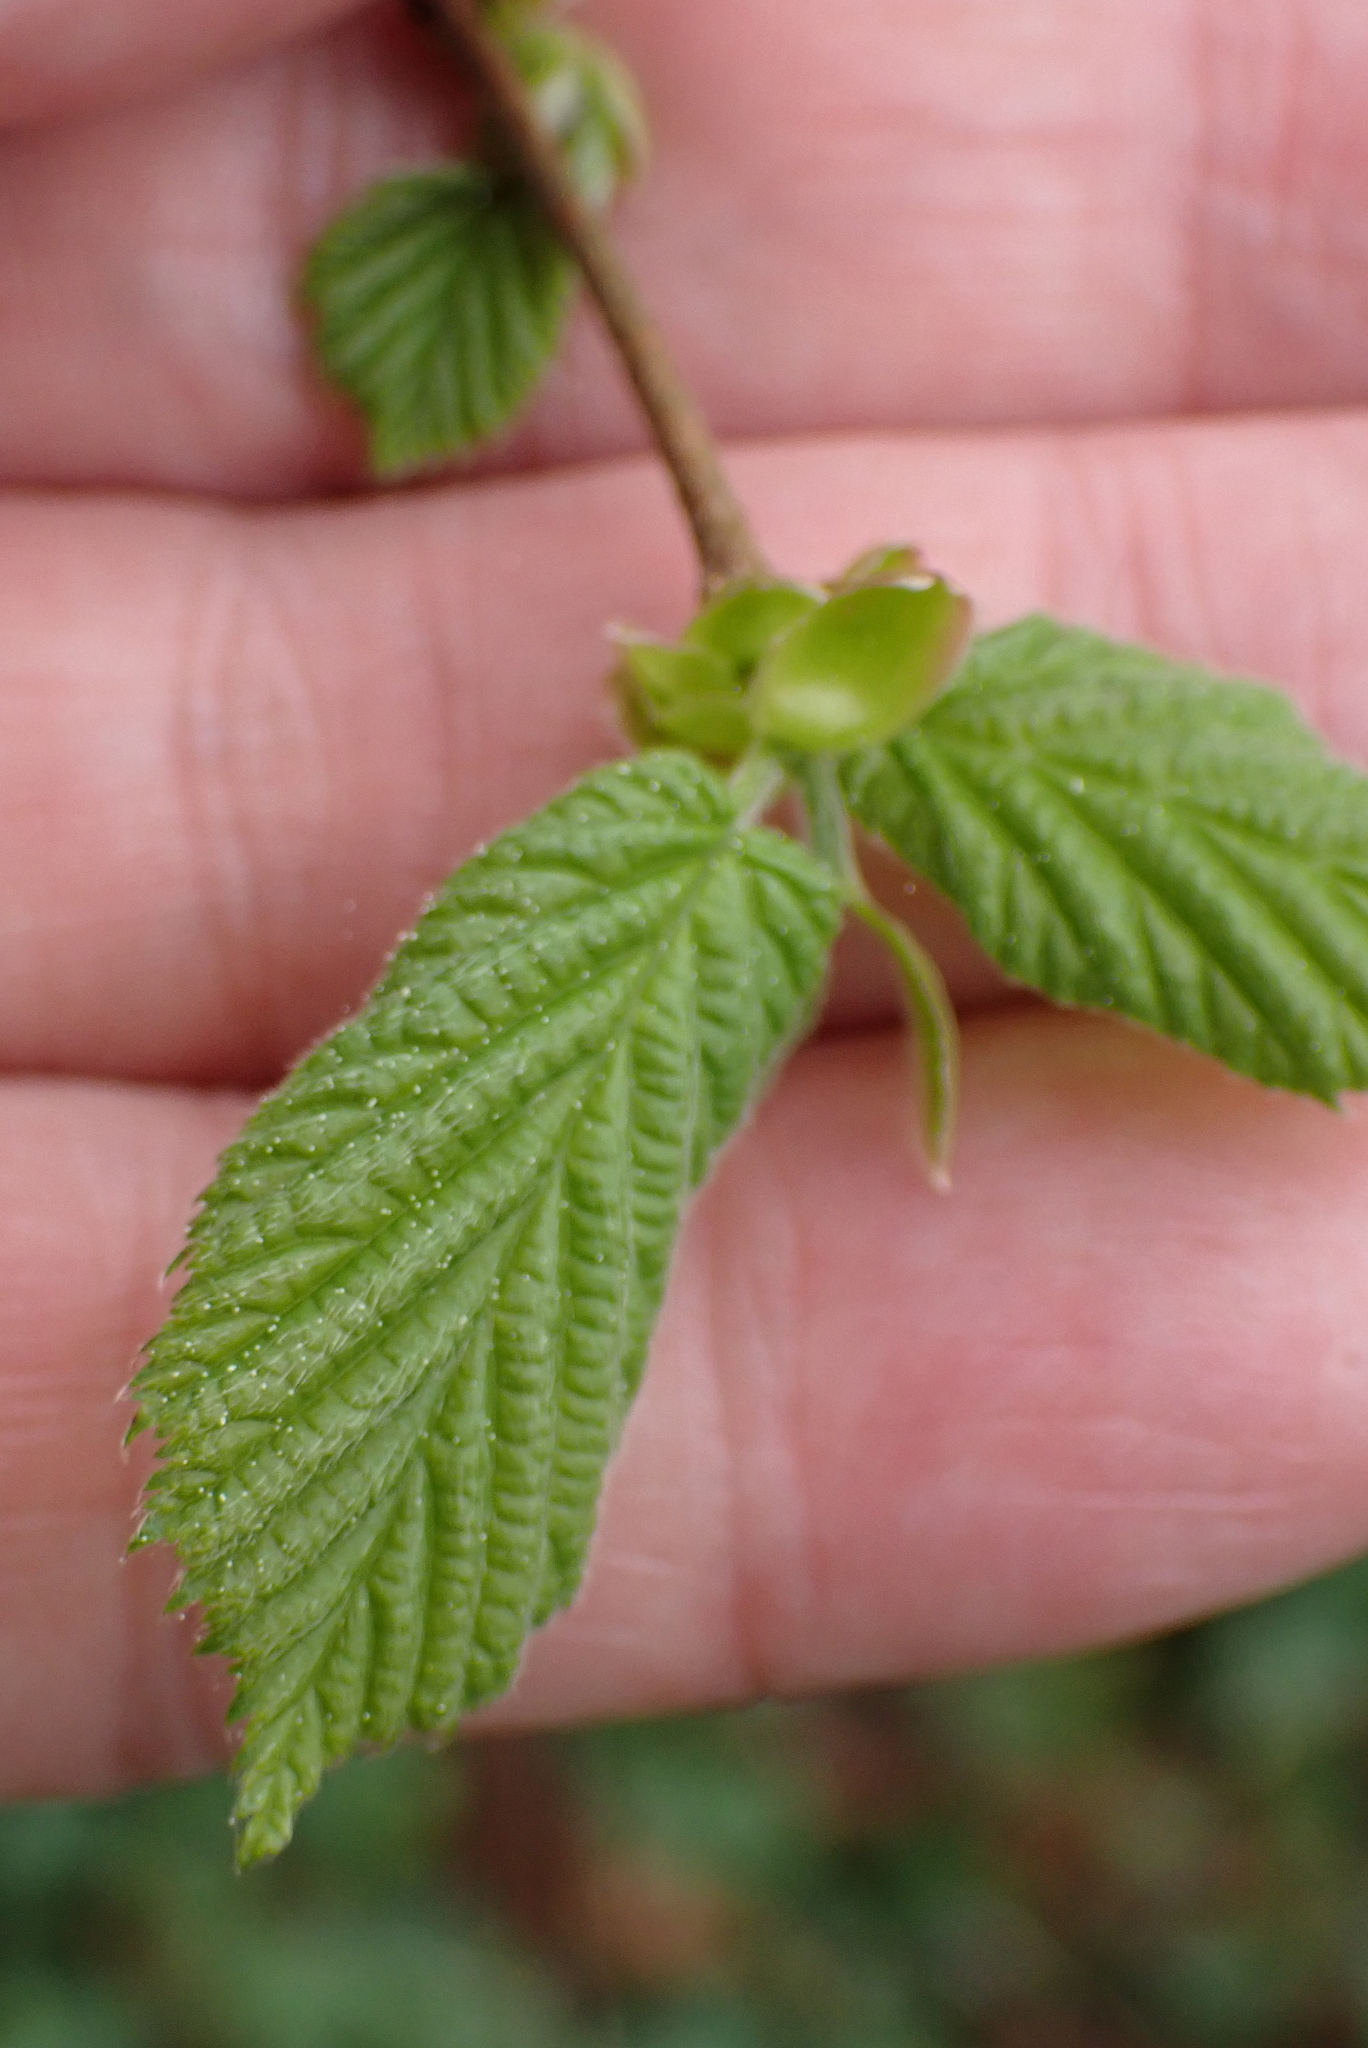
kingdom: Plantae
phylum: Tracheophyta
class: Magnoliopsida
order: Fagales
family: Betulaceae
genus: Corylus
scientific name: Corylus avellana
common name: European hazel
